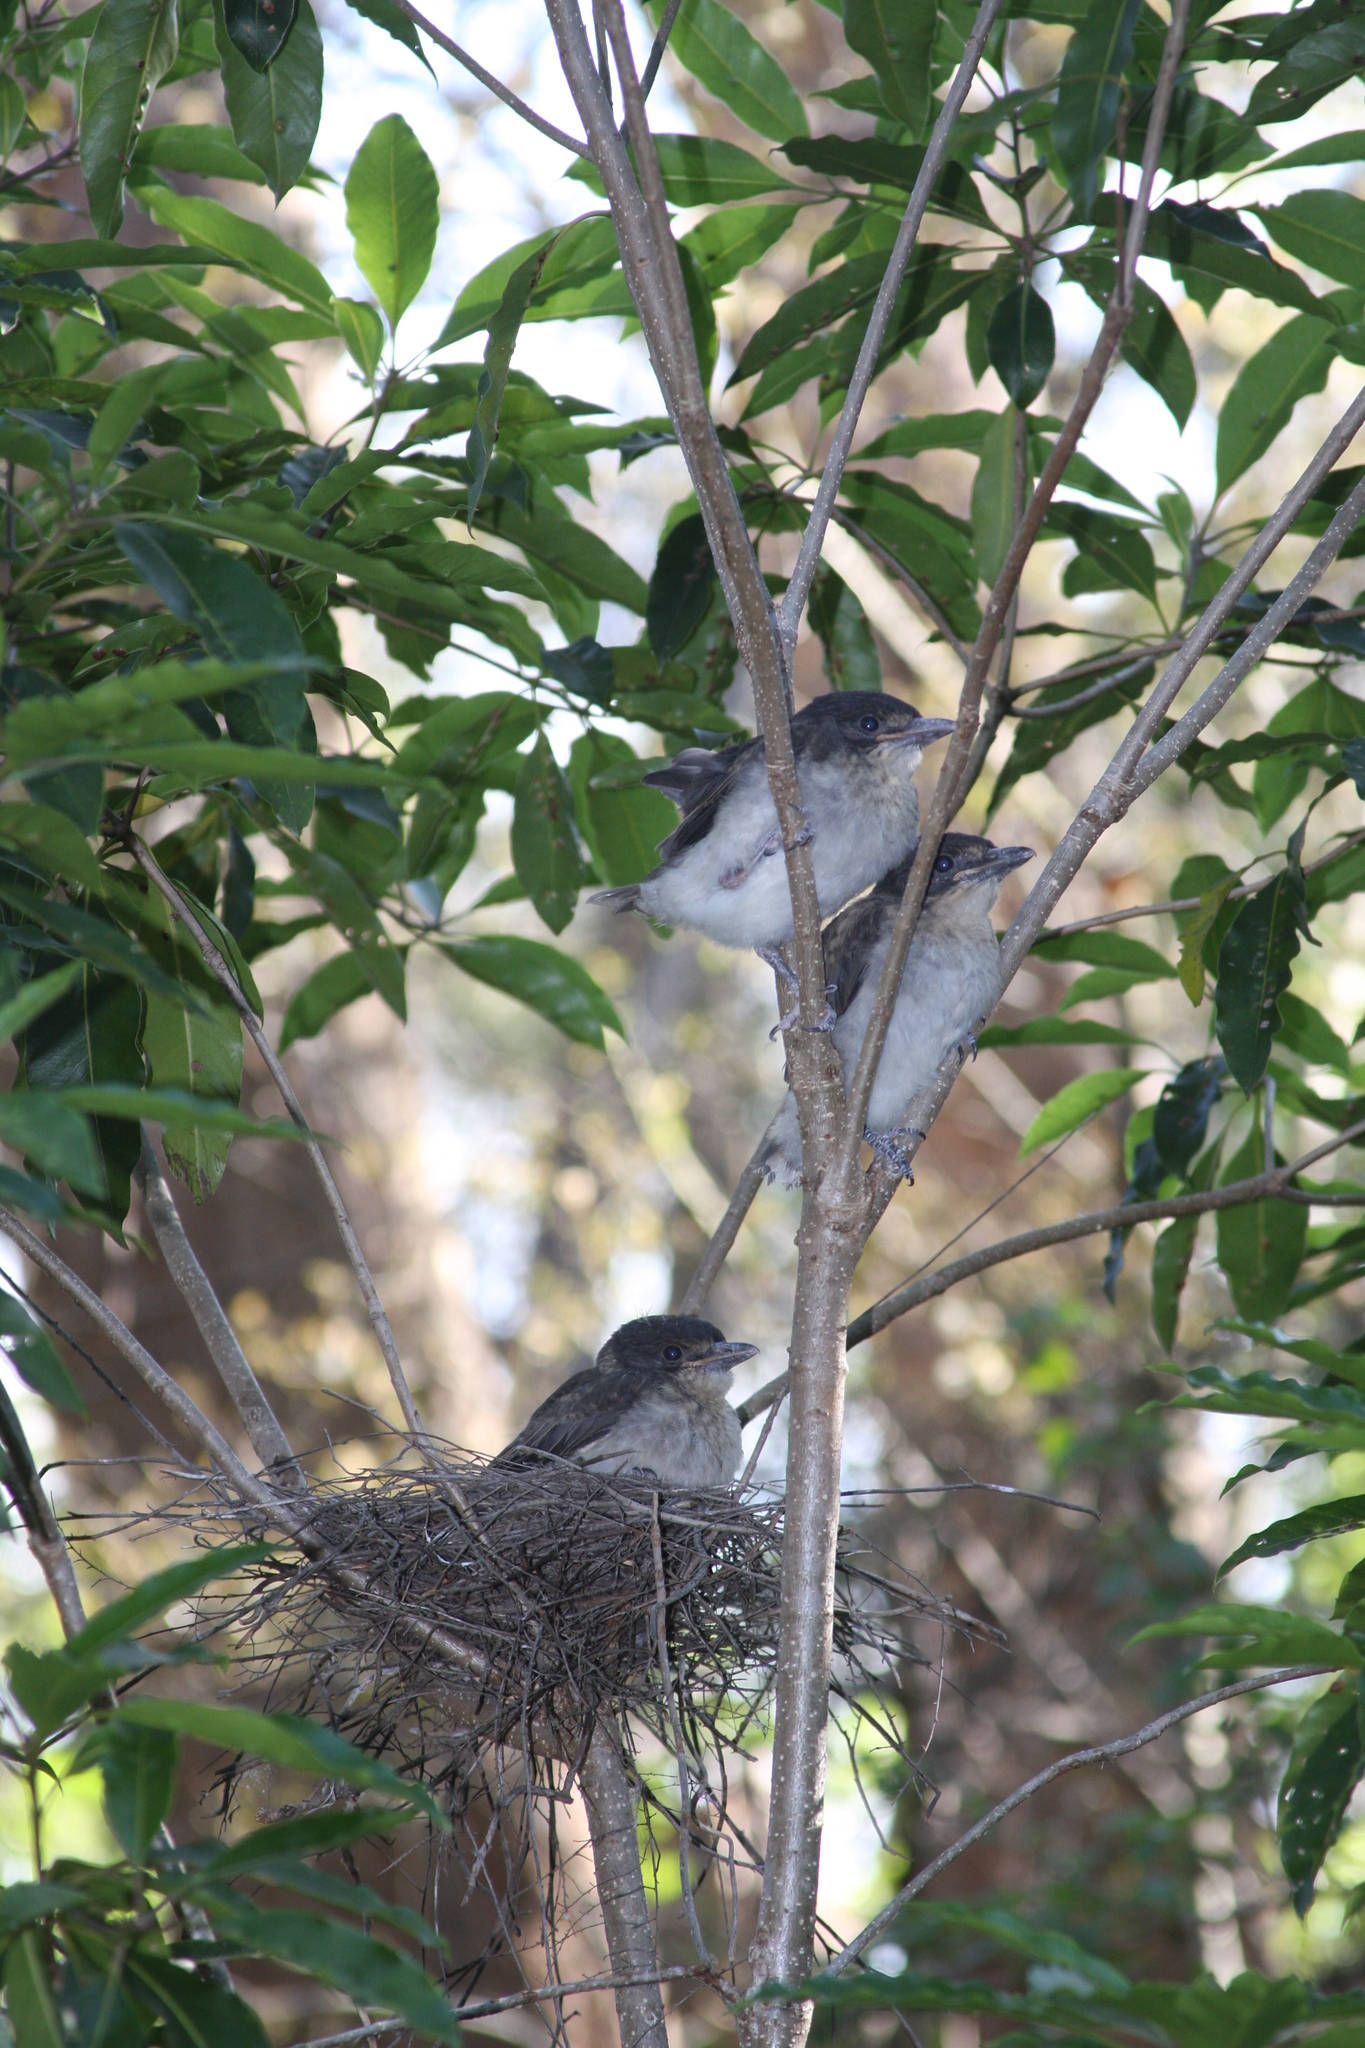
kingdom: Animalia
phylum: Chordata
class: Aves
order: Passeriformes
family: Cracticidae
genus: Cracticus
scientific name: Cracticus torquatus
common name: Grey butcherbird
